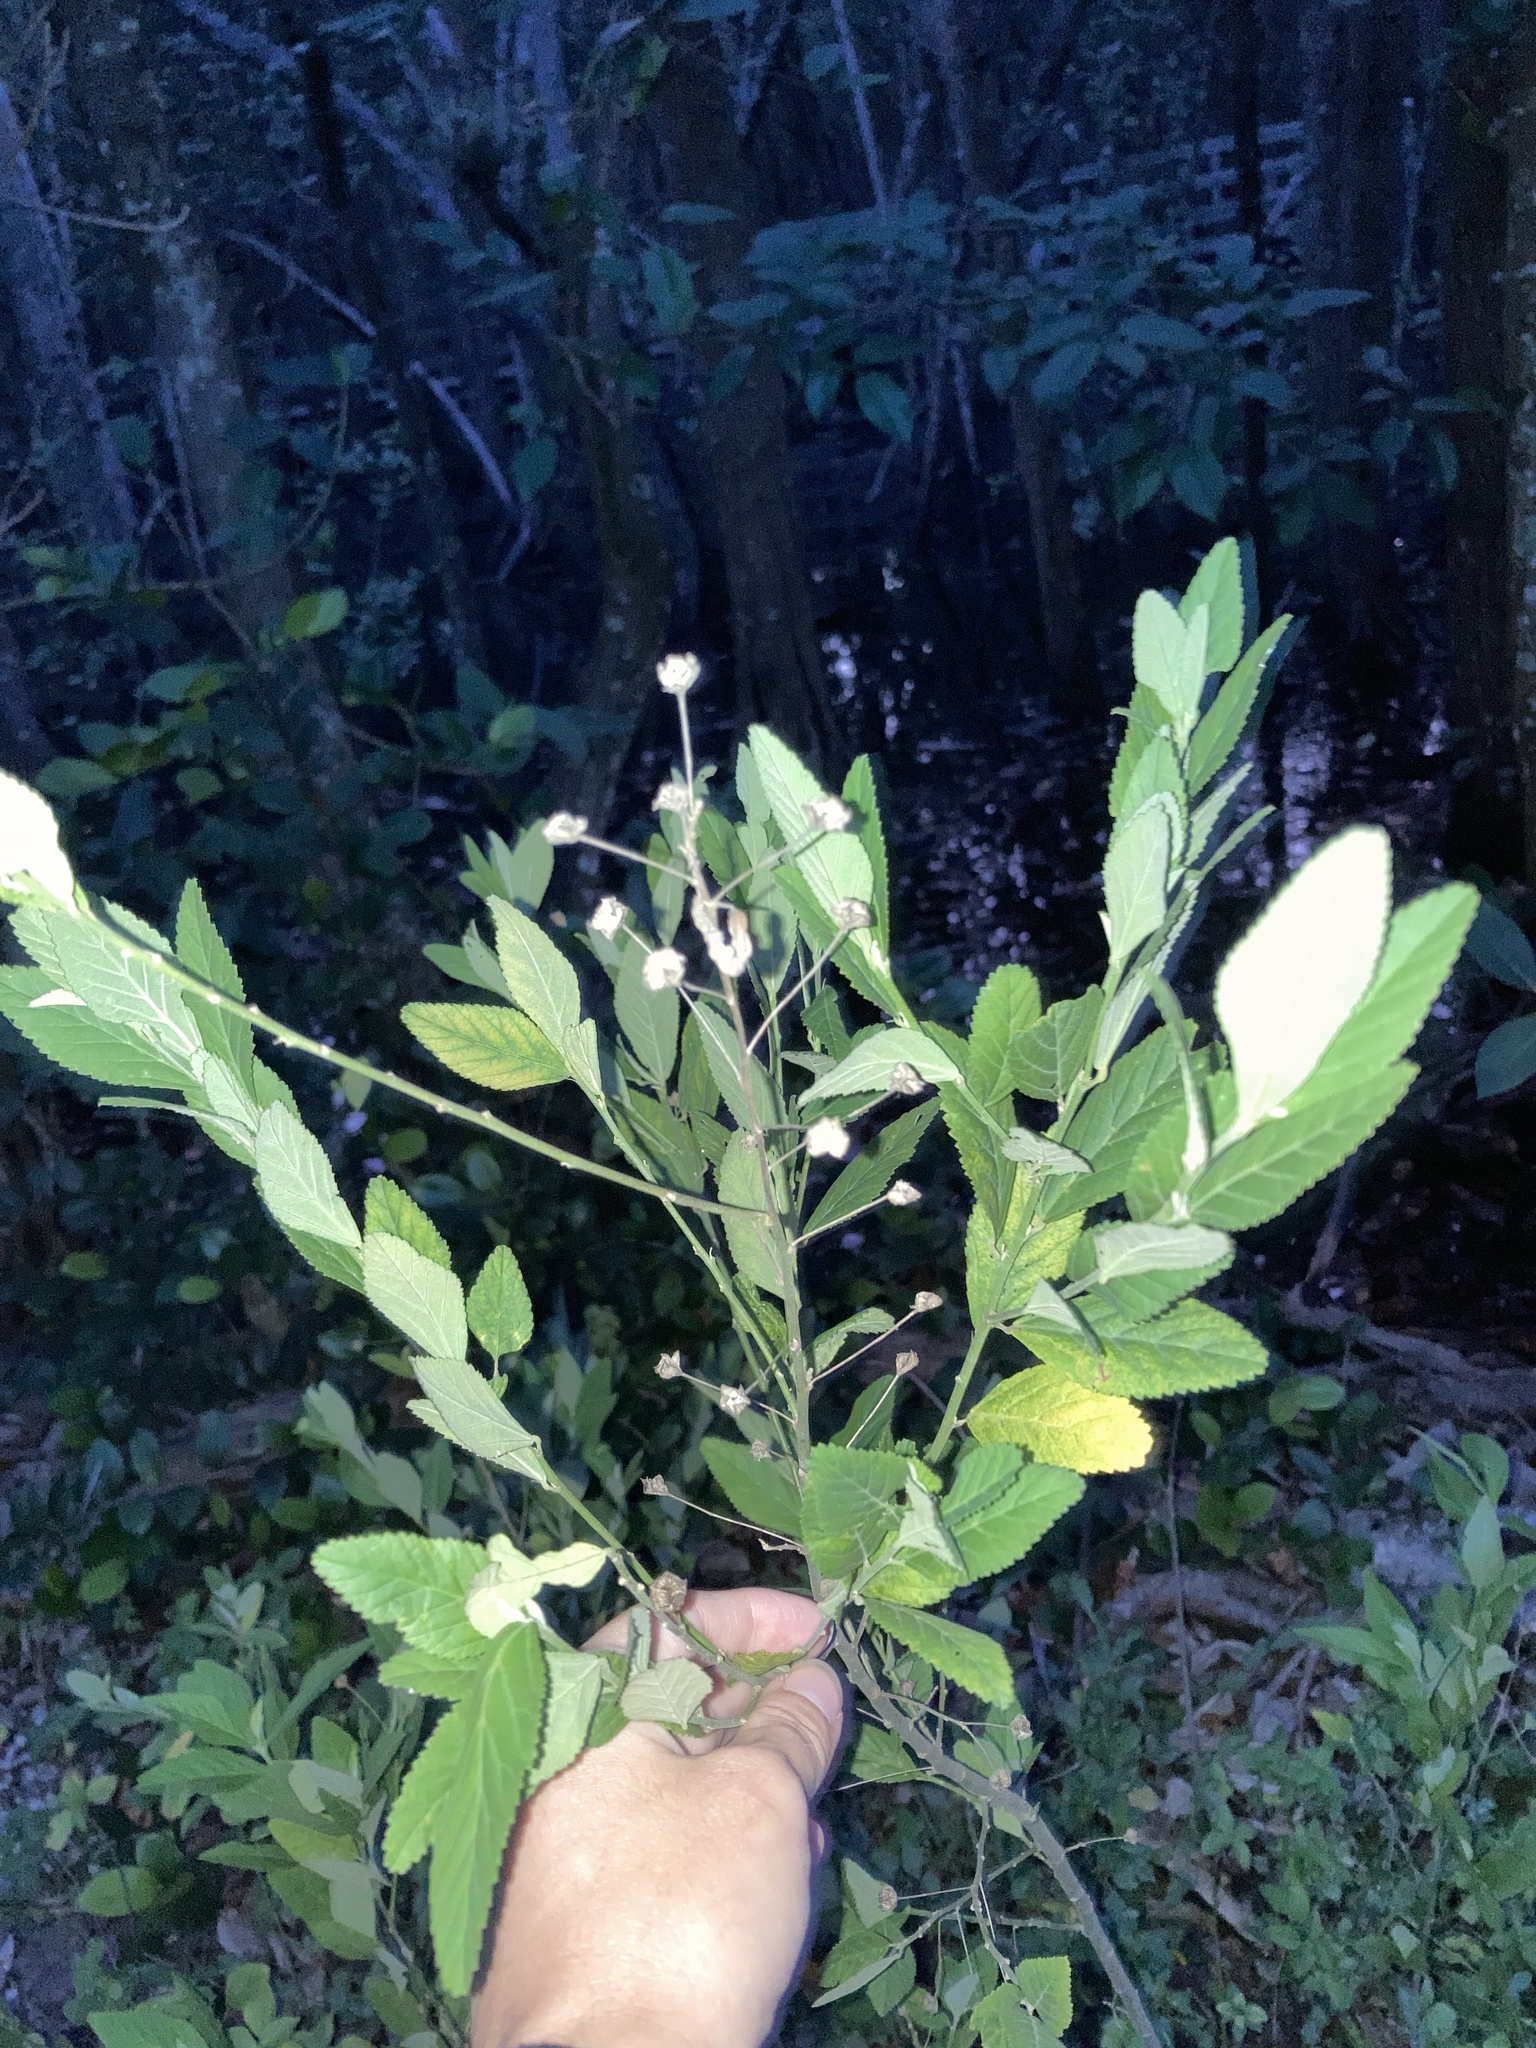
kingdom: Plantae
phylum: Tracheophyta
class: Magnoliopsida
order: Malvales
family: Malvaceae
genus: Sida
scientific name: Sida rhombifolia
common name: Queensland-hemp
